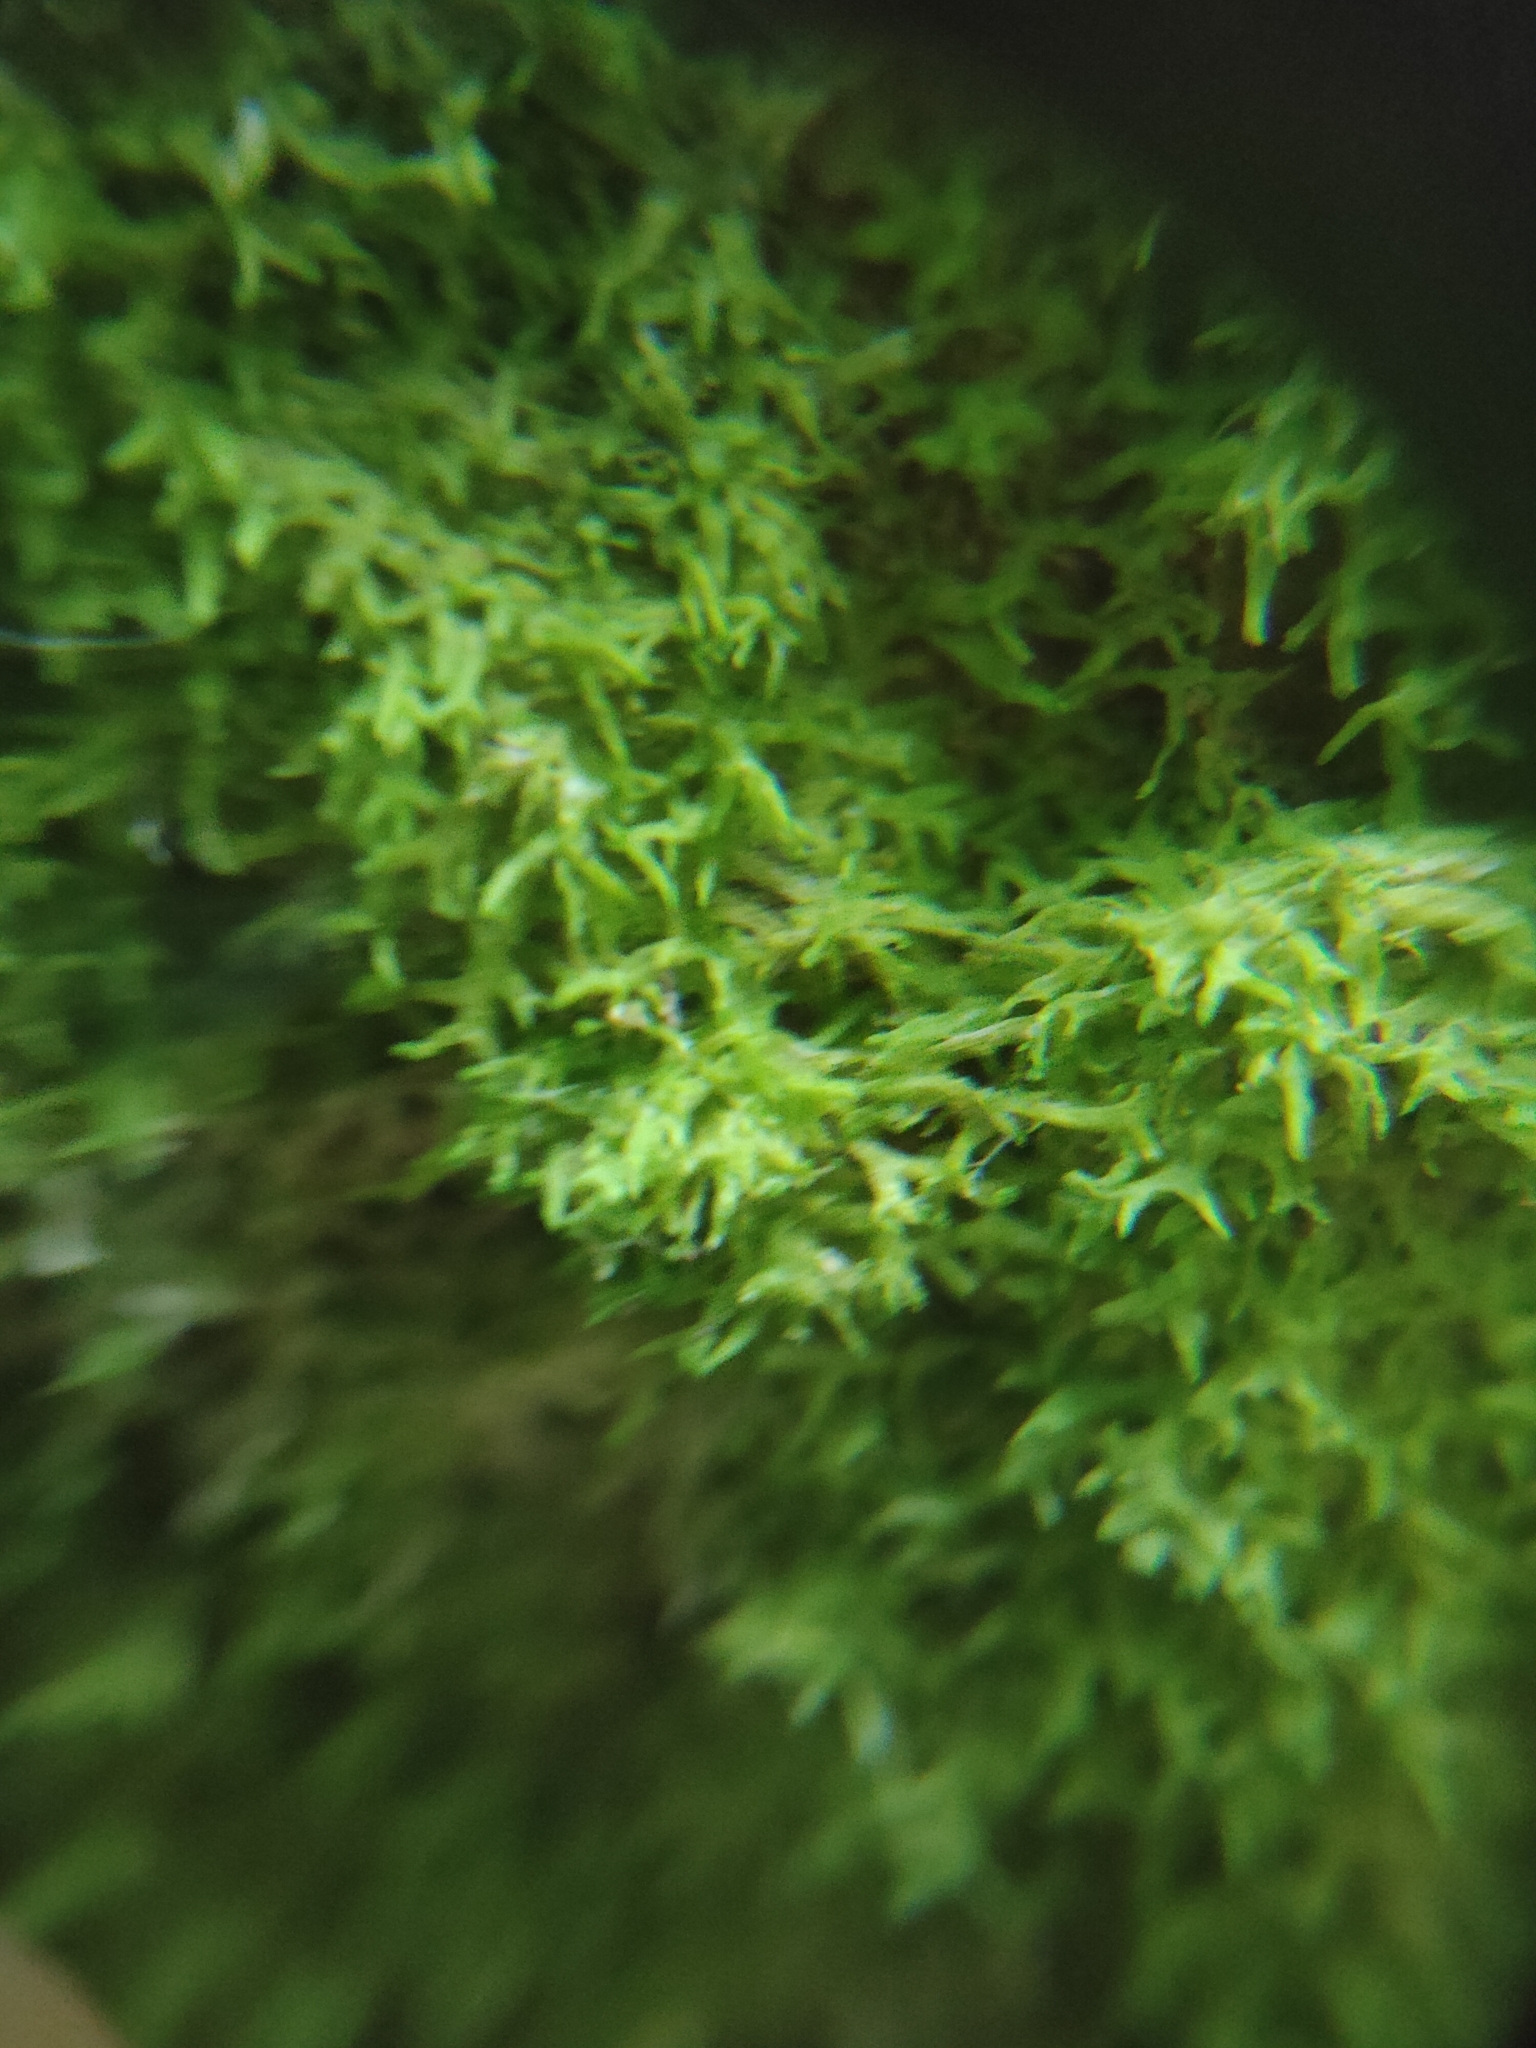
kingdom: Plantae
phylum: Marchantiophyta
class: Jungermanniopsida
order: Metzgeriales
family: Metzgeriaceae
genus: Metzgeria
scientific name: Metzgeria violacea
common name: Blueish veilwort
